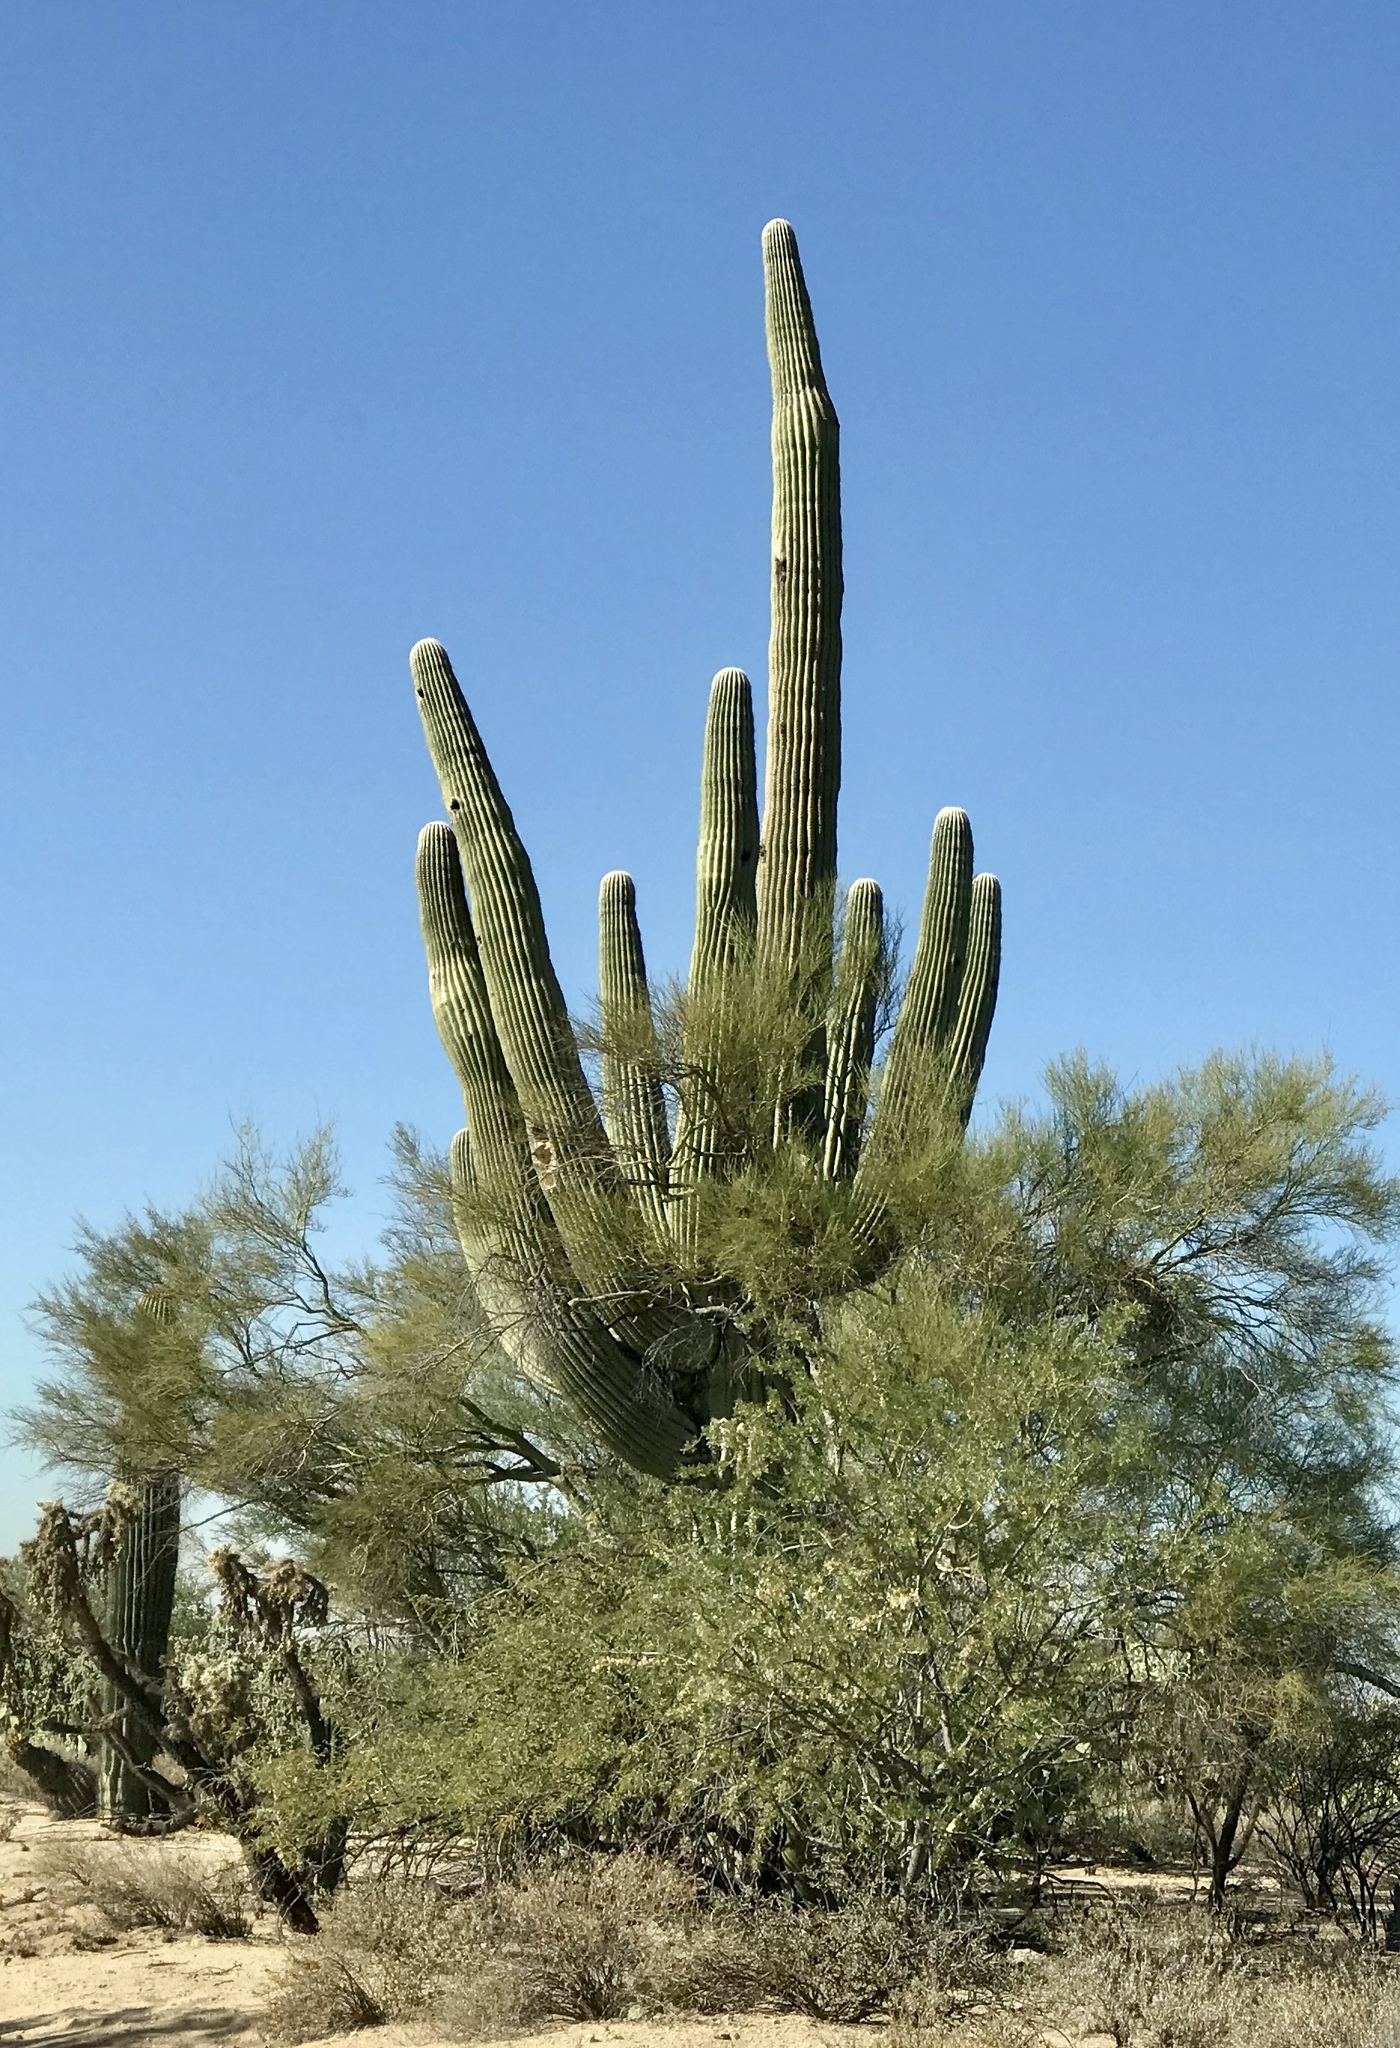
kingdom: Plantae
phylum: Tracheophyta
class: Magnoliopsida
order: Caryophyllales
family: Cactaceae
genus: Carnegiea
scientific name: Carnegiea gigantea
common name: Saguaro
